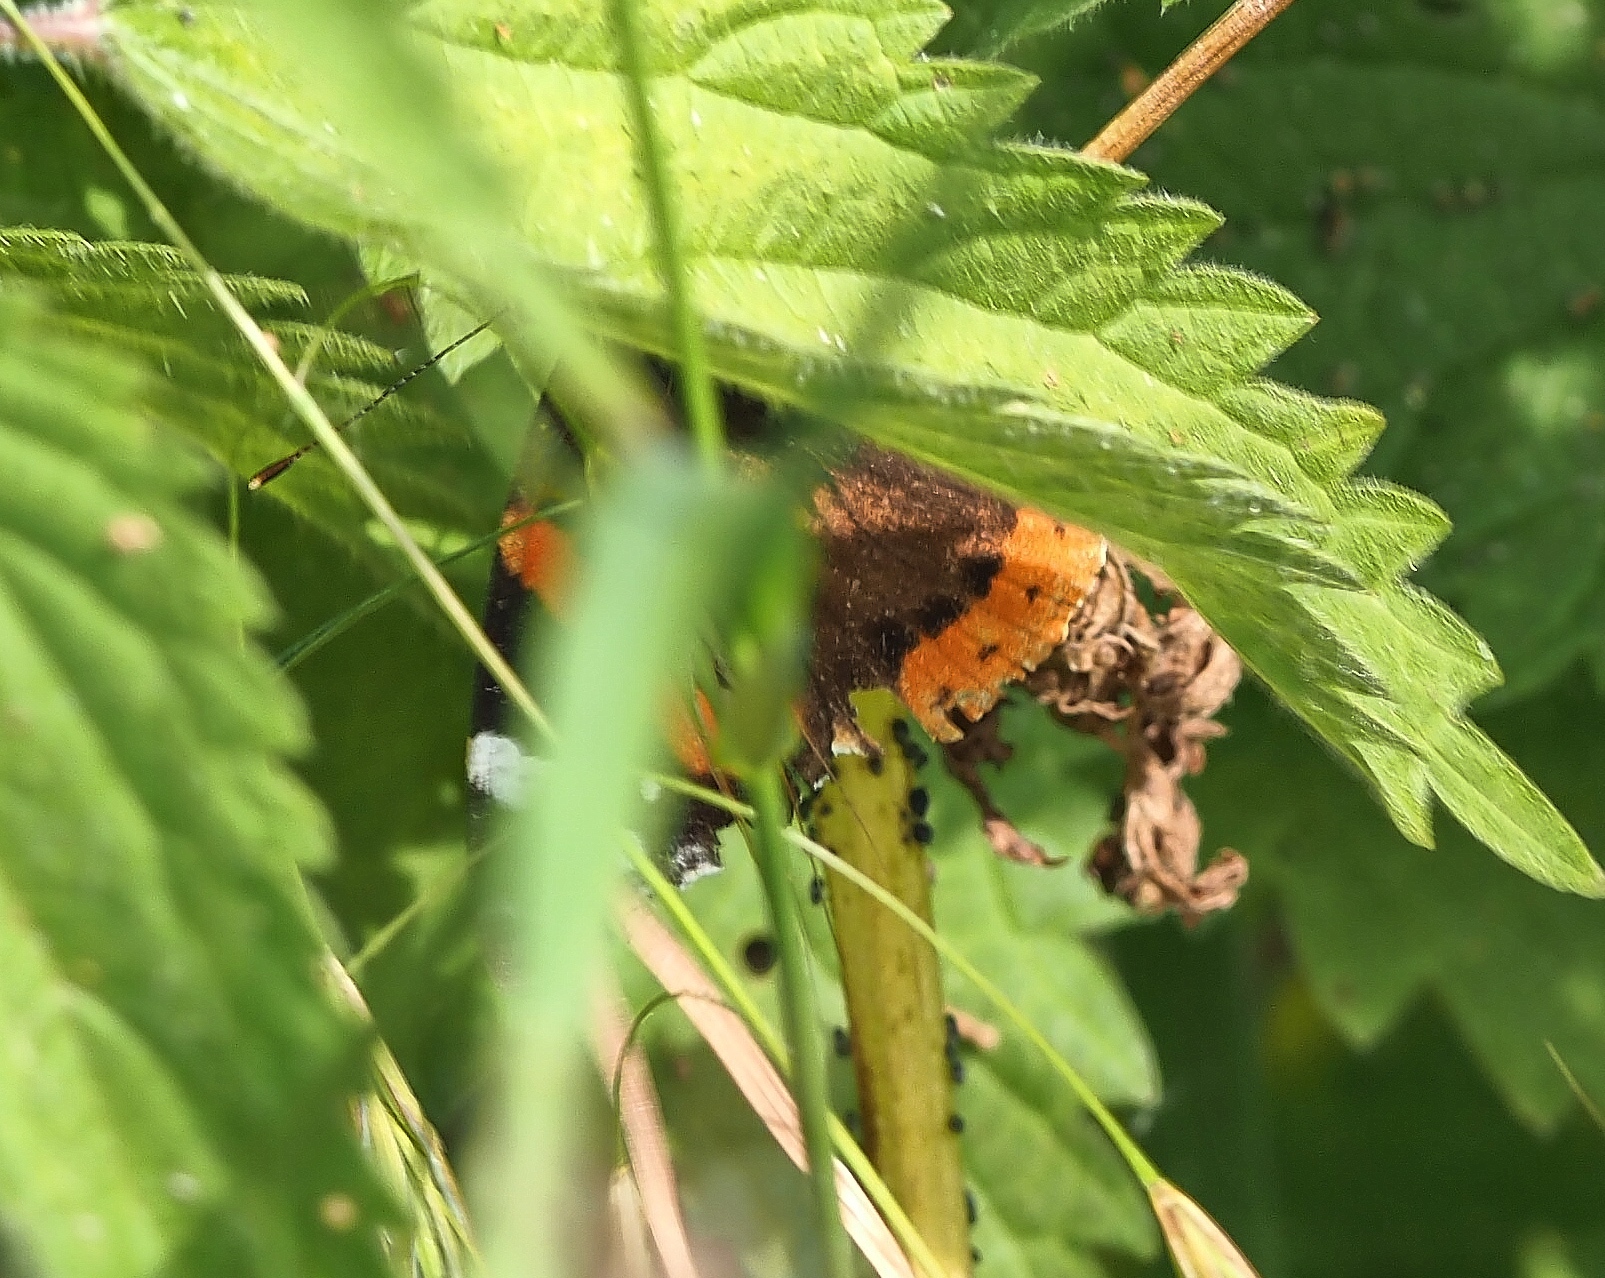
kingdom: Animalia
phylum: Arthropoda
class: Insecta
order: Lepidoptera
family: Nymphalidae
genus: Vanessa
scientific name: Vanessa atalanta
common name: Red admiral
